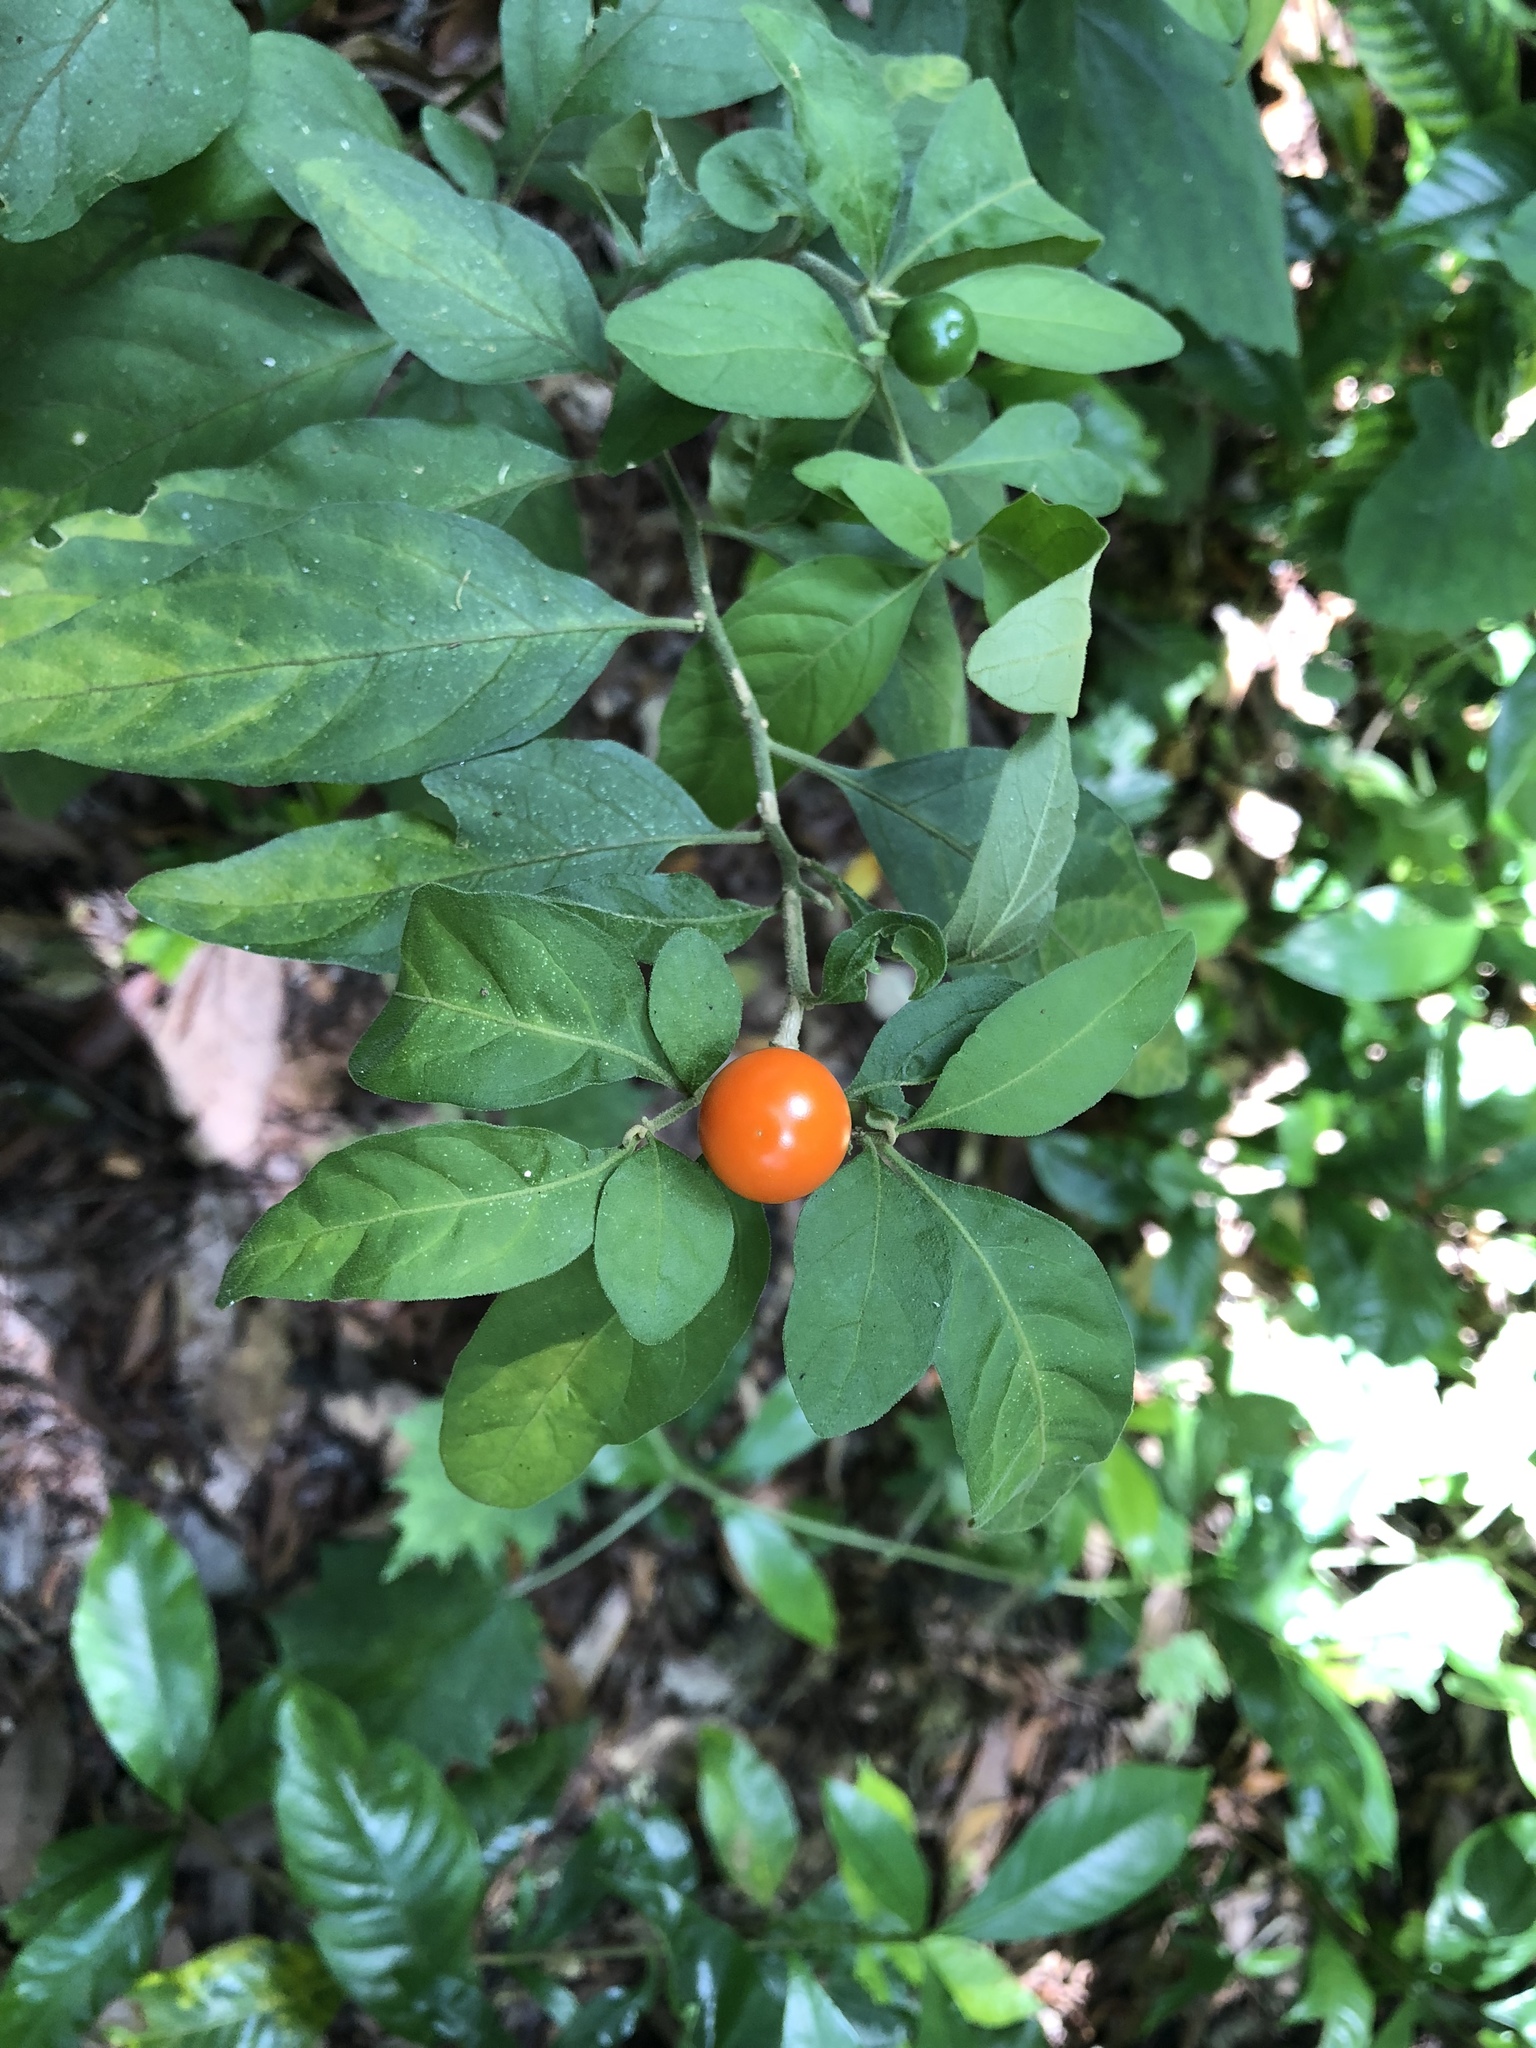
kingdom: Plantae
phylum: Tracheophyta
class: Magnoliopsida
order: Solanales
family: Solanaceae
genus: Solanum
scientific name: Solanum pseudocapsicum
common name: Jerusalem cherry
